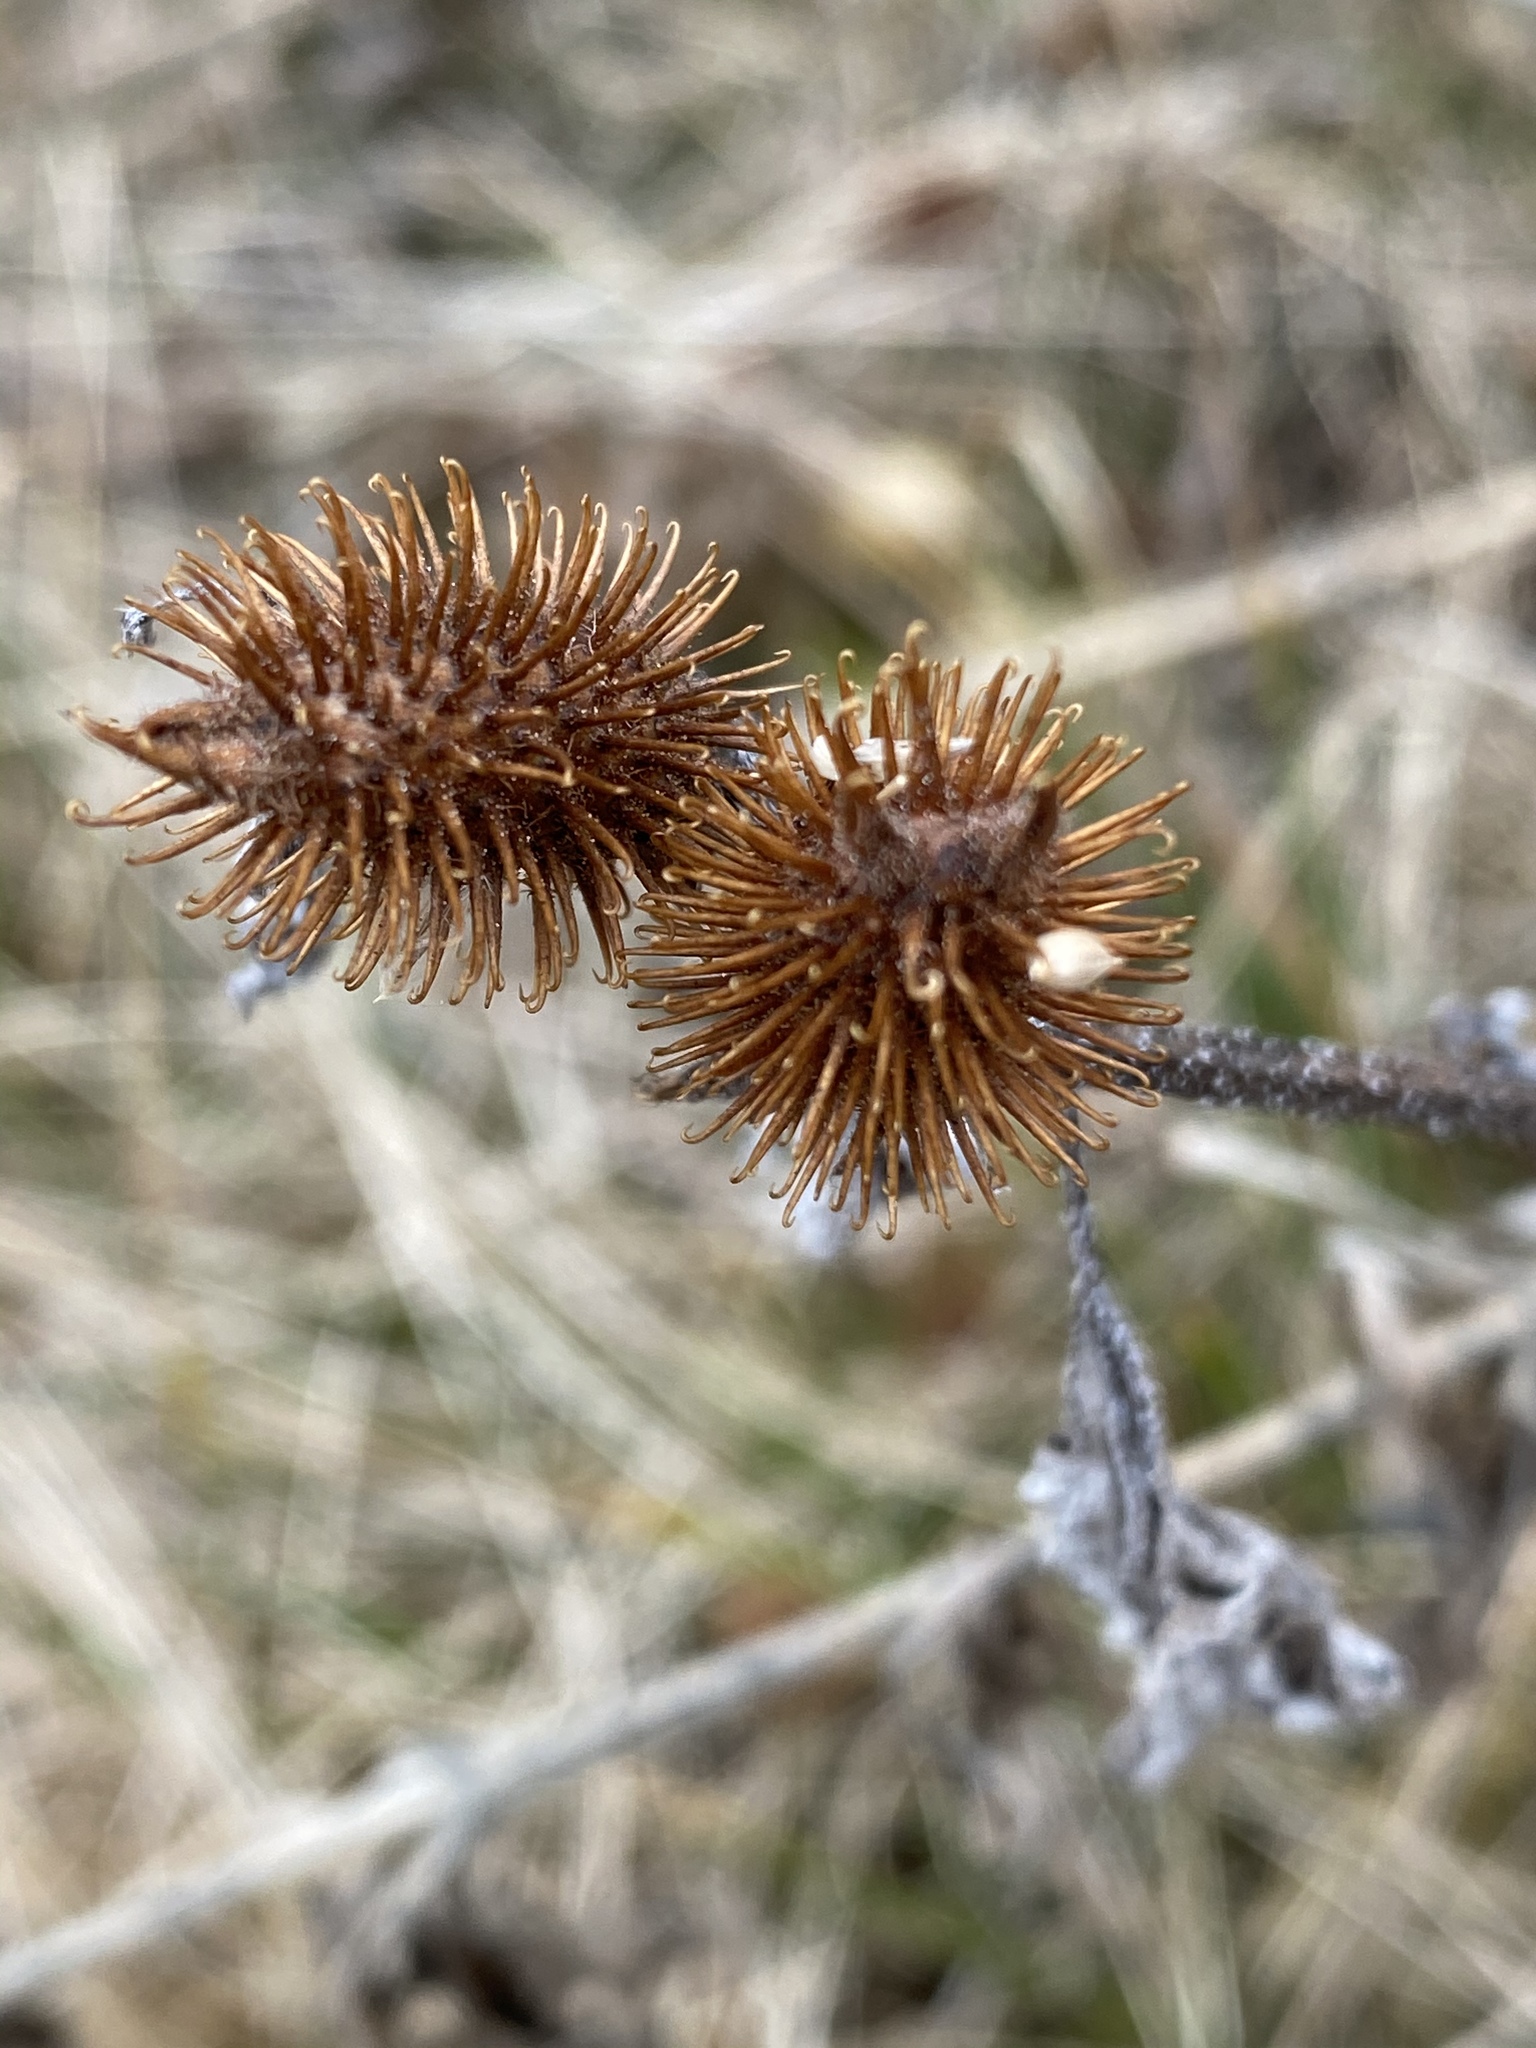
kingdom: Plantae
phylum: Tracheophyta
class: Magnoliopsida
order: Asterales
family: Asteraceae
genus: Xanthium
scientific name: Xanthium strumarium
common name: Rough cocklebur
